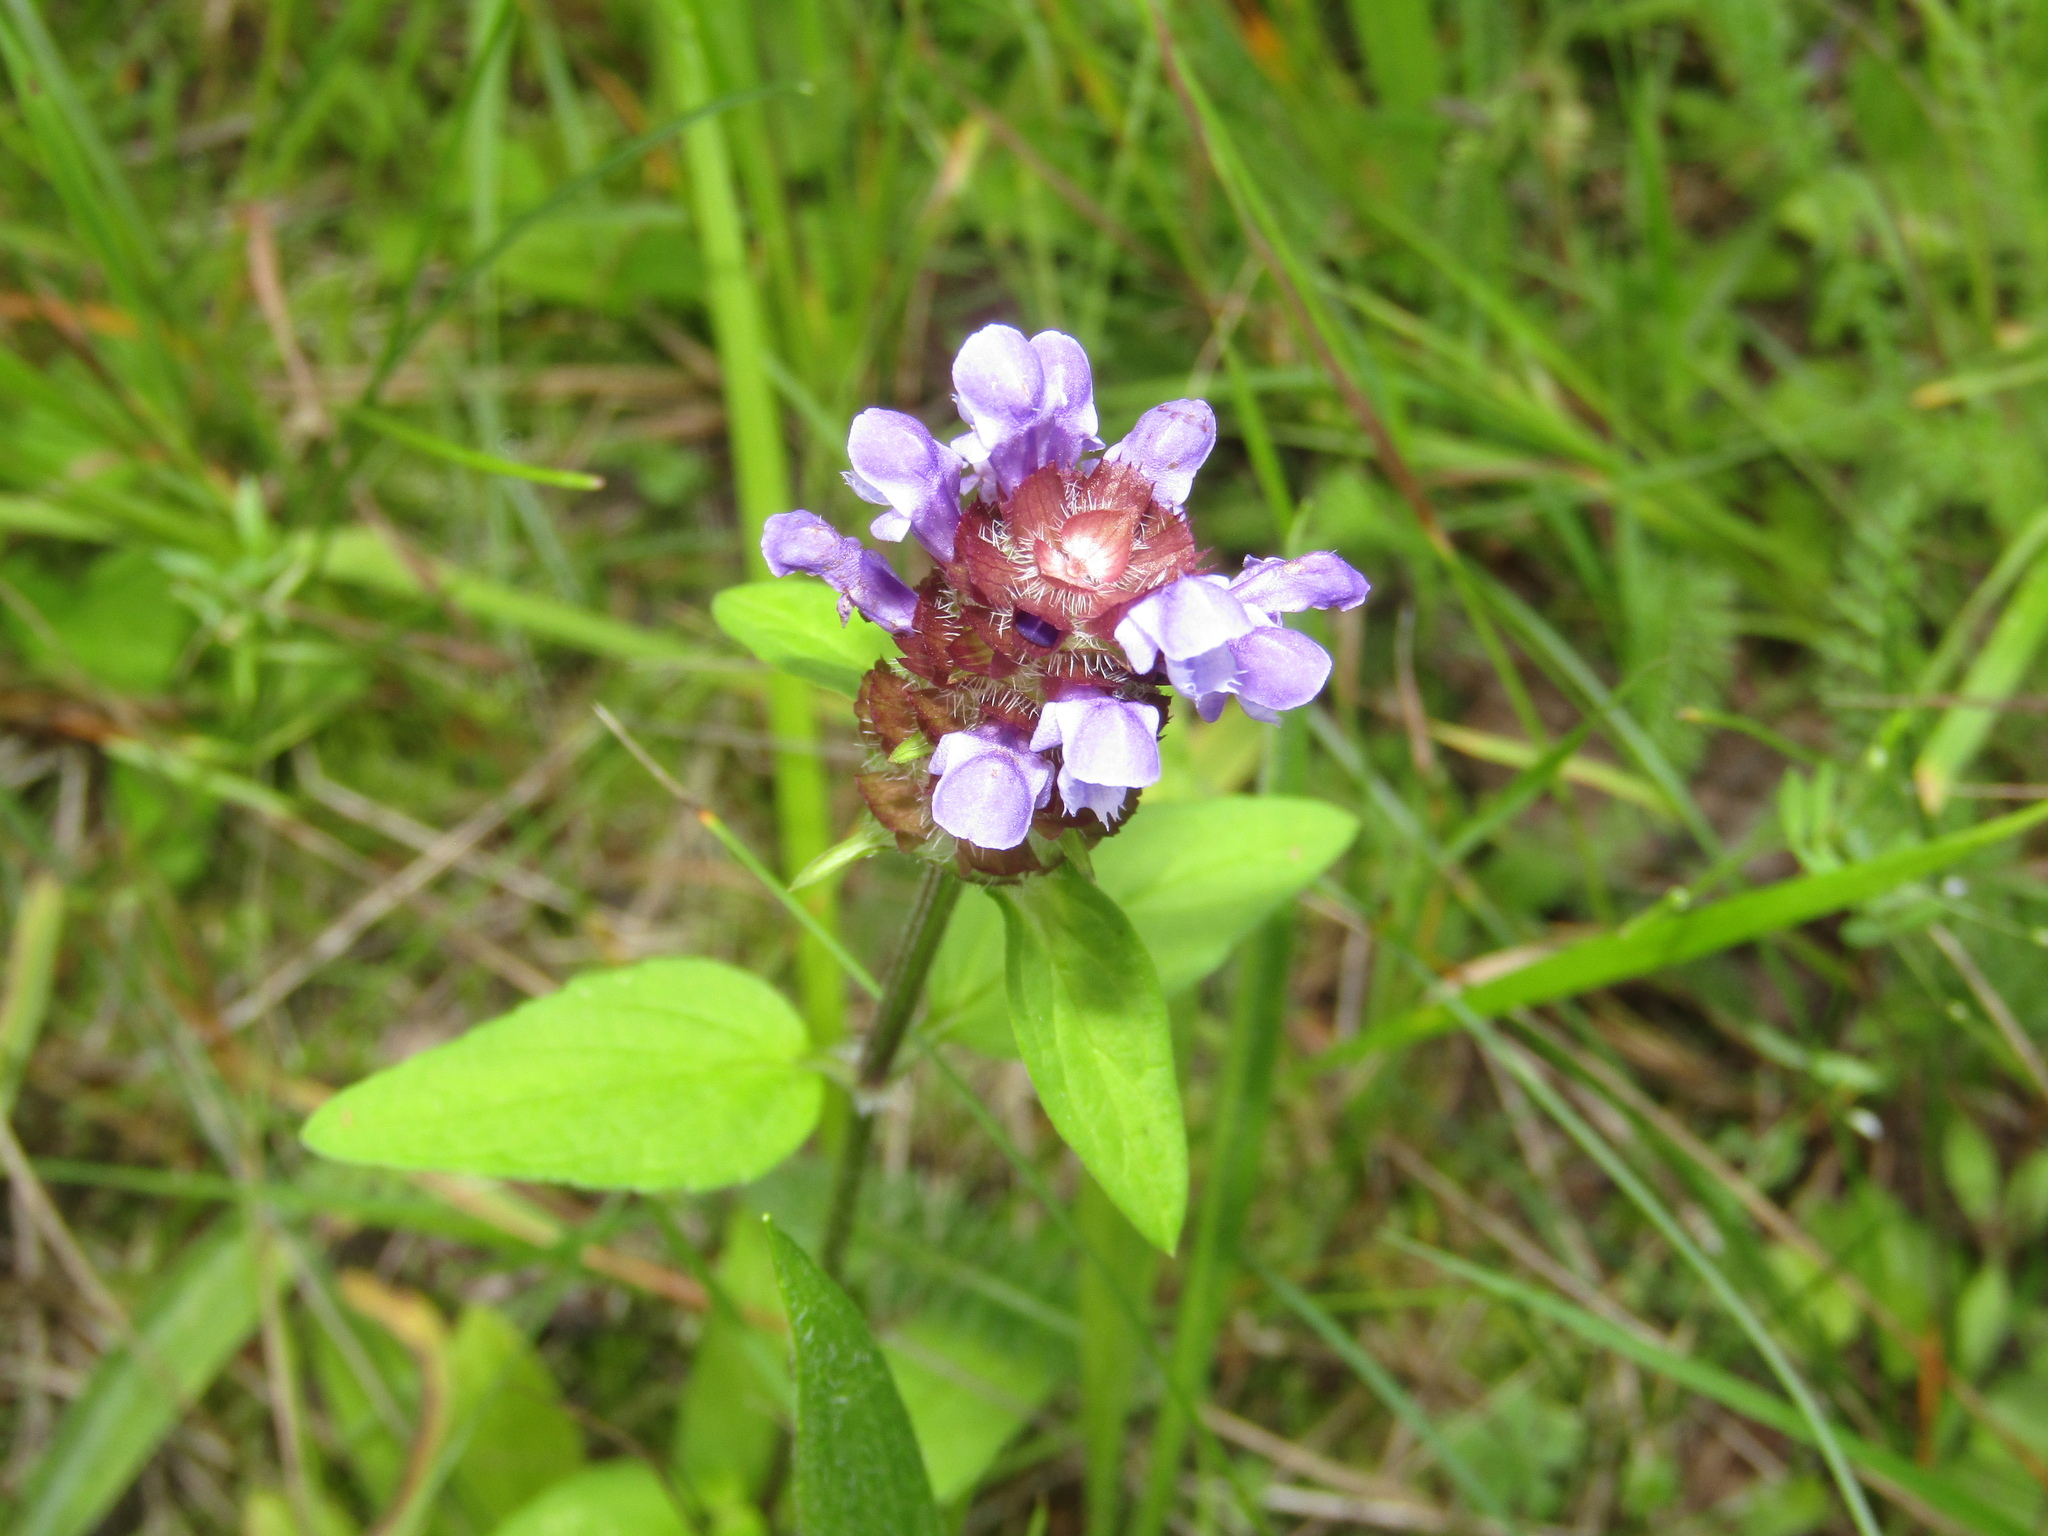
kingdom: Plantae
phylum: Tracheophyta
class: Magnoliopsida
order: Lamiales
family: Lamiaceae
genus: Prunella
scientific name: Prunella vulgaris
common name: Heal-all
